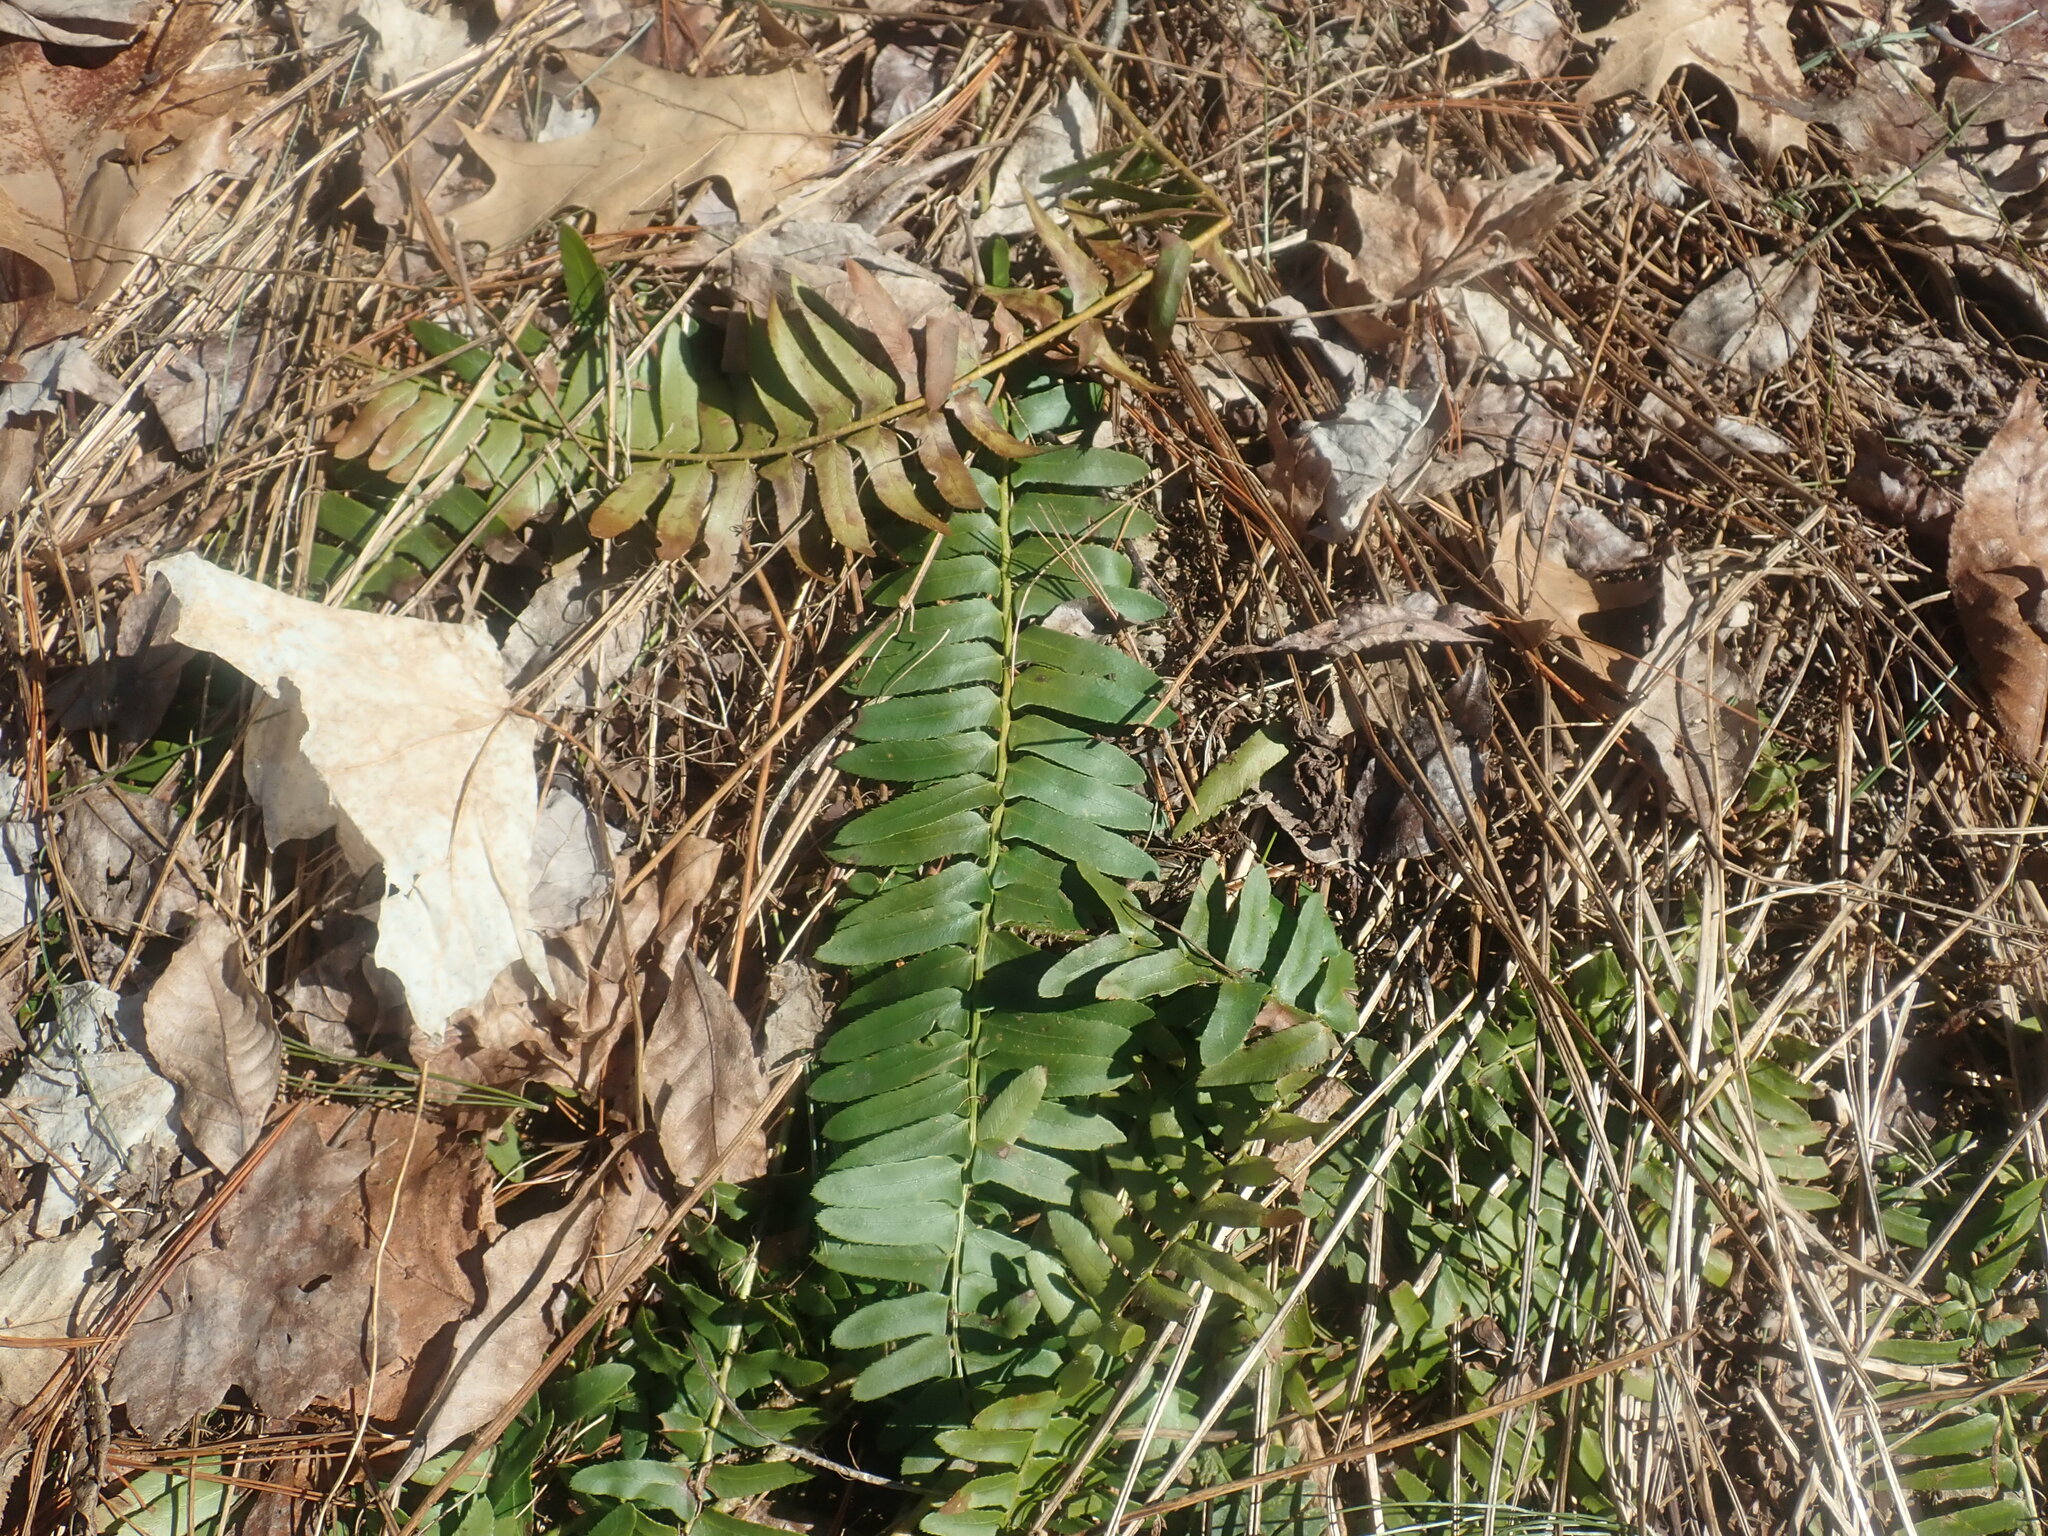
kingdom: Plantae
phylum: Tracheophyta
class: Polypodiopsida
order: Polypodiales
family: Dryopteridaceae
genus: Polystichum
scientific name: Polystichum acrostichoides
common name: Christmas fern
